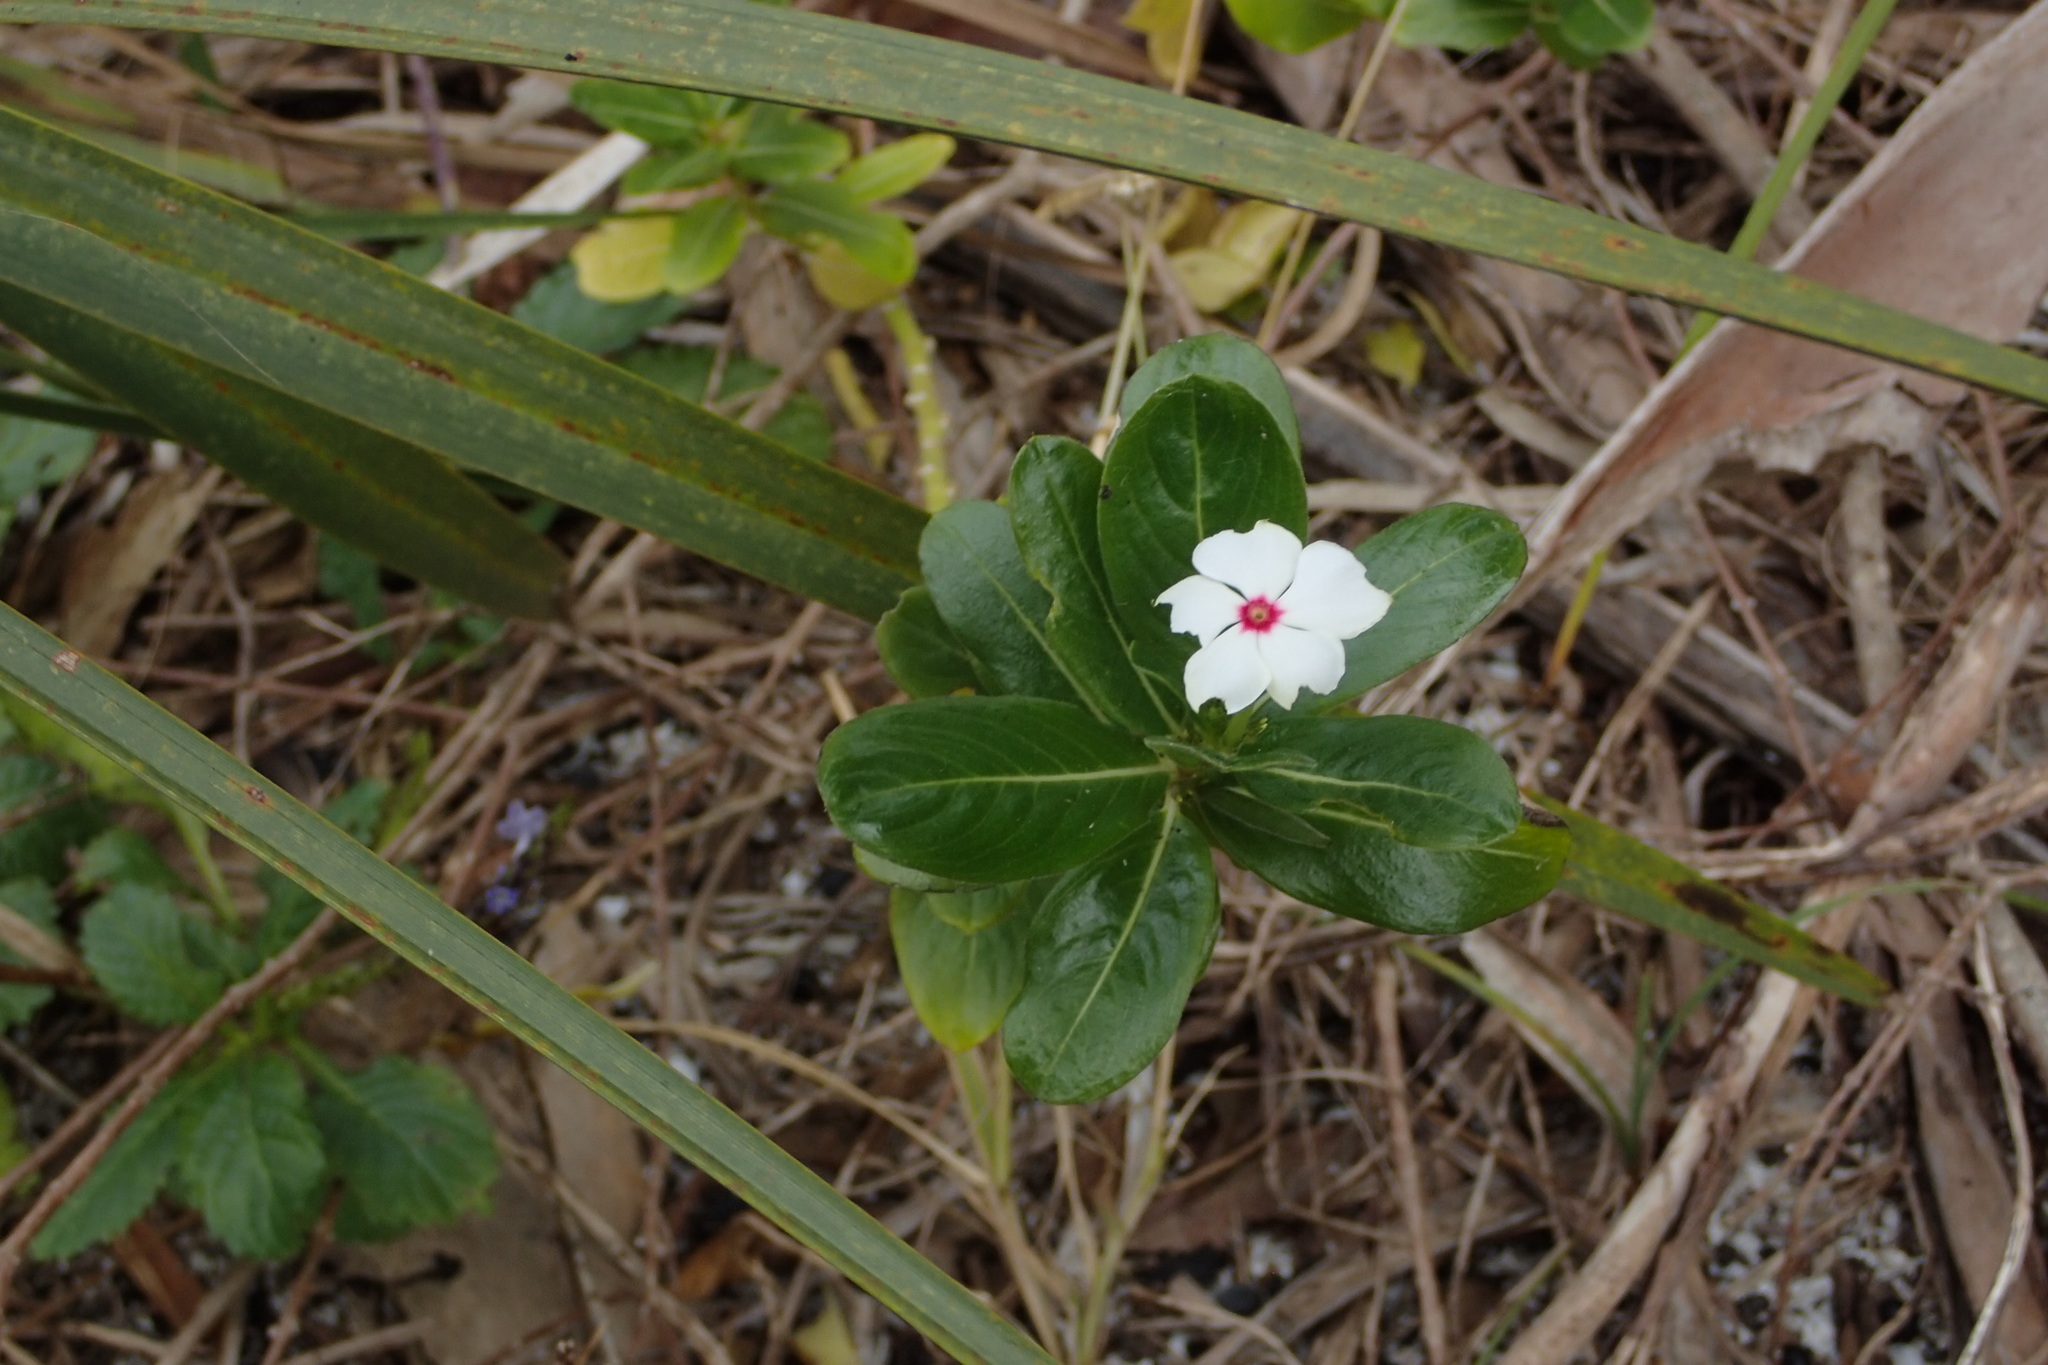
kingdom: Plantae
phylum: Tracheophyta
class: Magnoliopsida
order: Gentianales
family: Apocynaceae
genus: Catharanthus
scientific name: Catharanthus roseus
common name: Madagascar periwinkle
